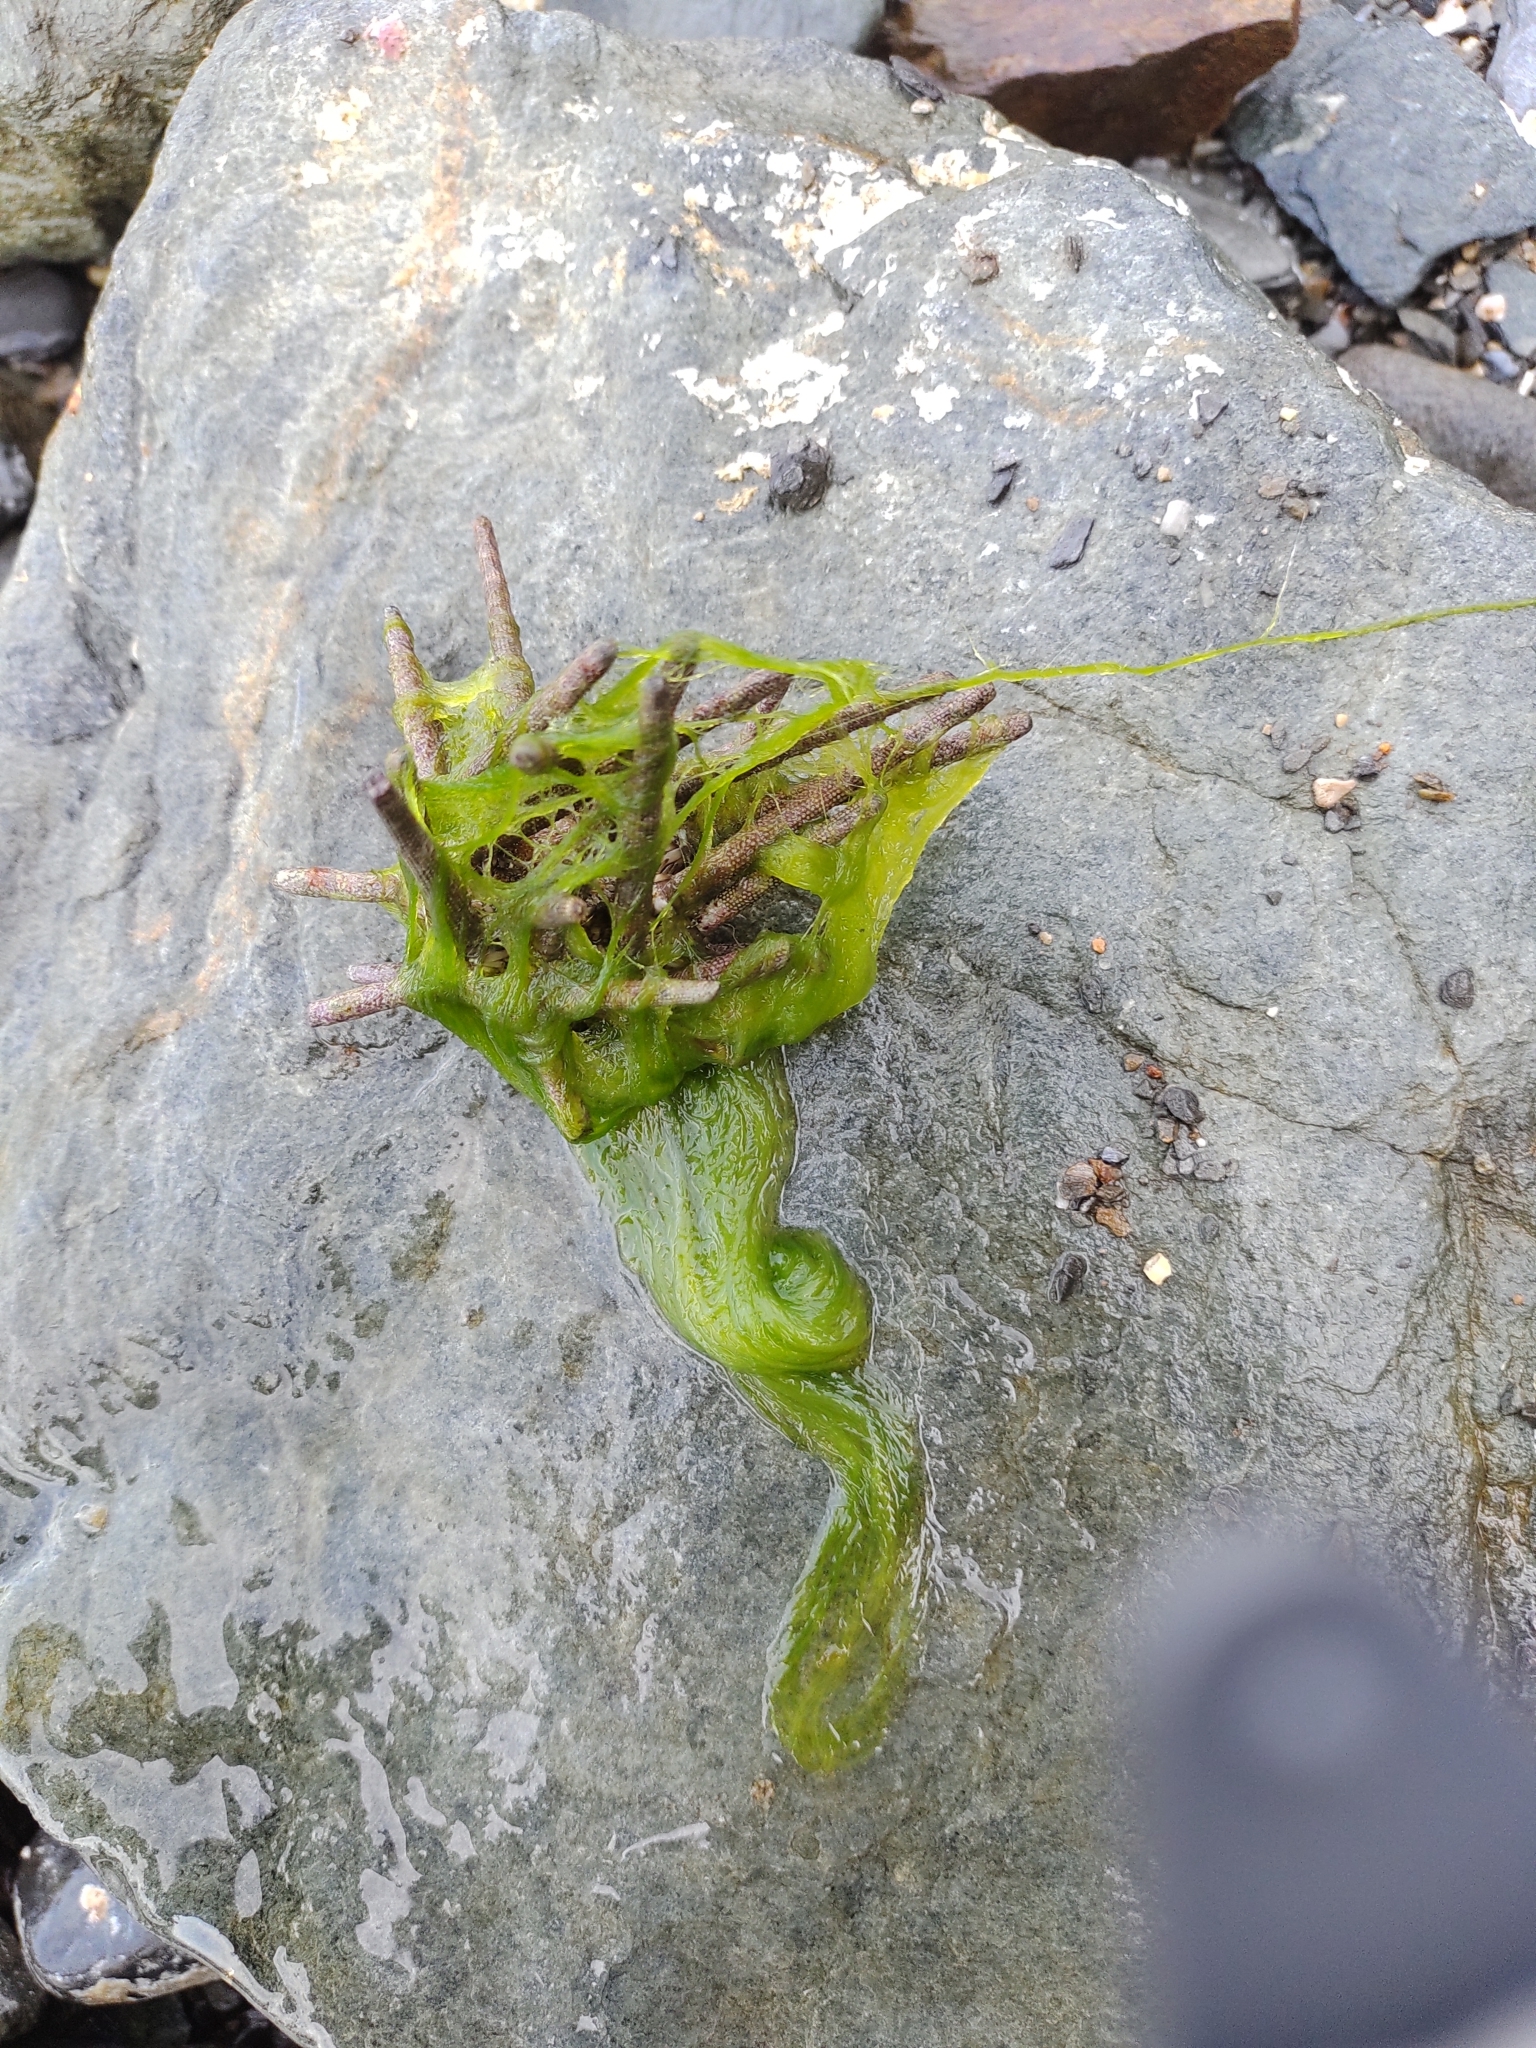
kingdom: Animalia
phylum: Echinodermata
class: Echinoidea
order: Cidaroida
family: Cidaridae
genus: Eucidaris
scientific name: Eucidaris tribuloides
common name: Slate pencil urchin
